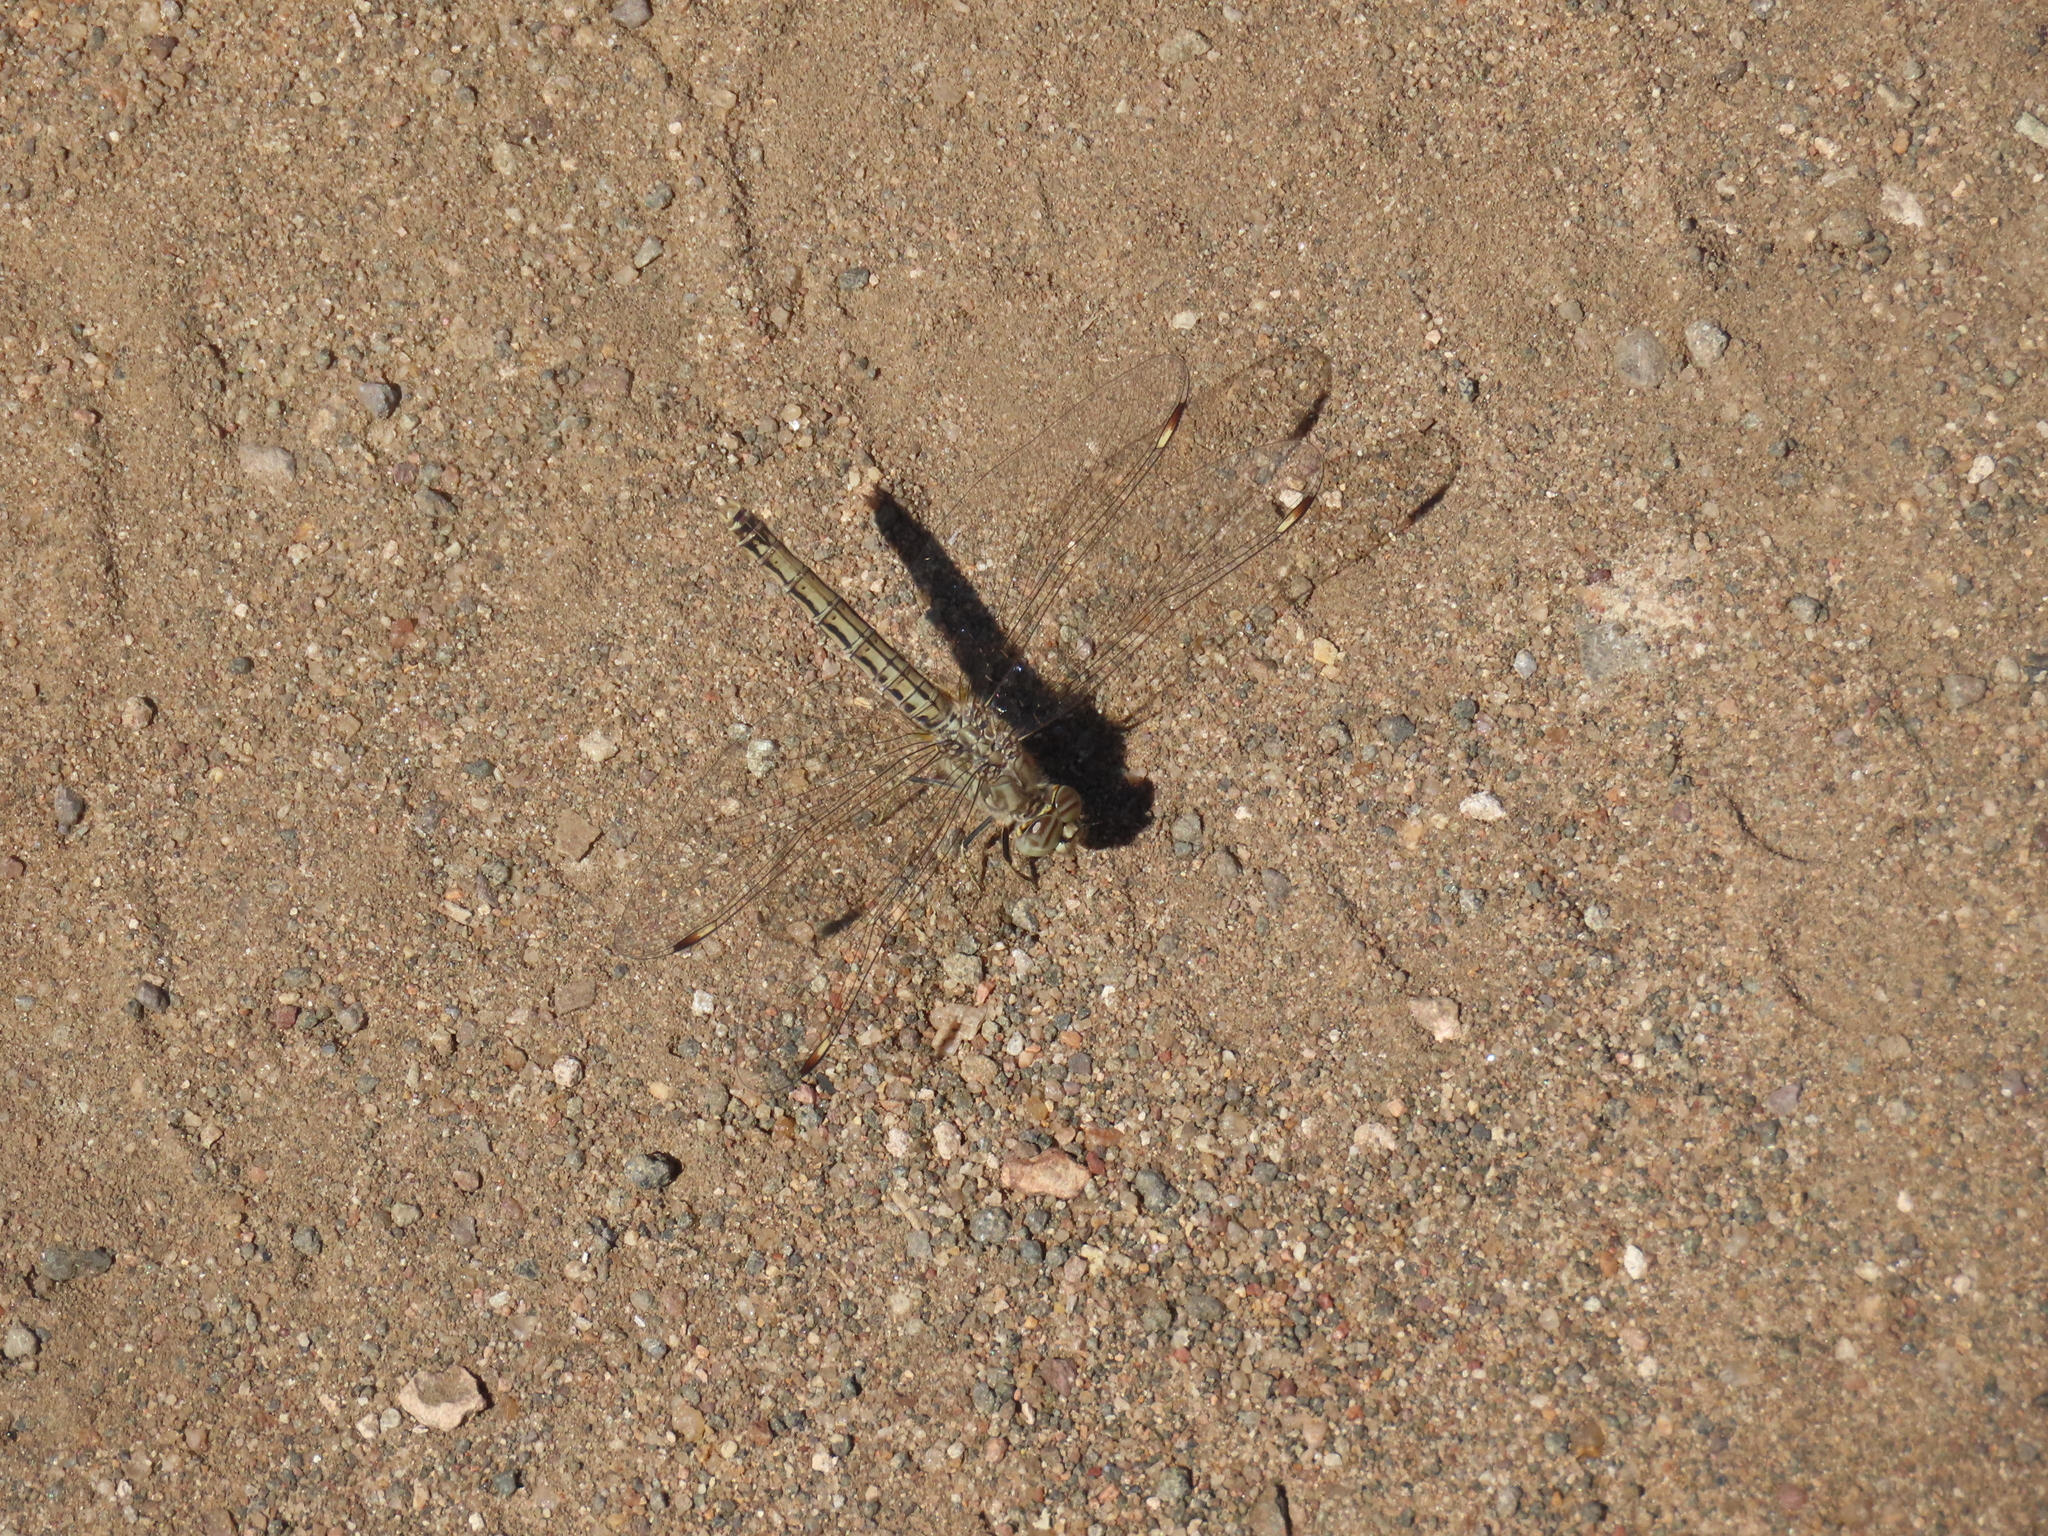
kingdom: Animalia
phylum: Arthropoda
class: Insecta
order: Odonata
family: Libellulidae
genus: Brachythemis
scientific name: Brachythemis leucosticta
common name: Banded groundling
